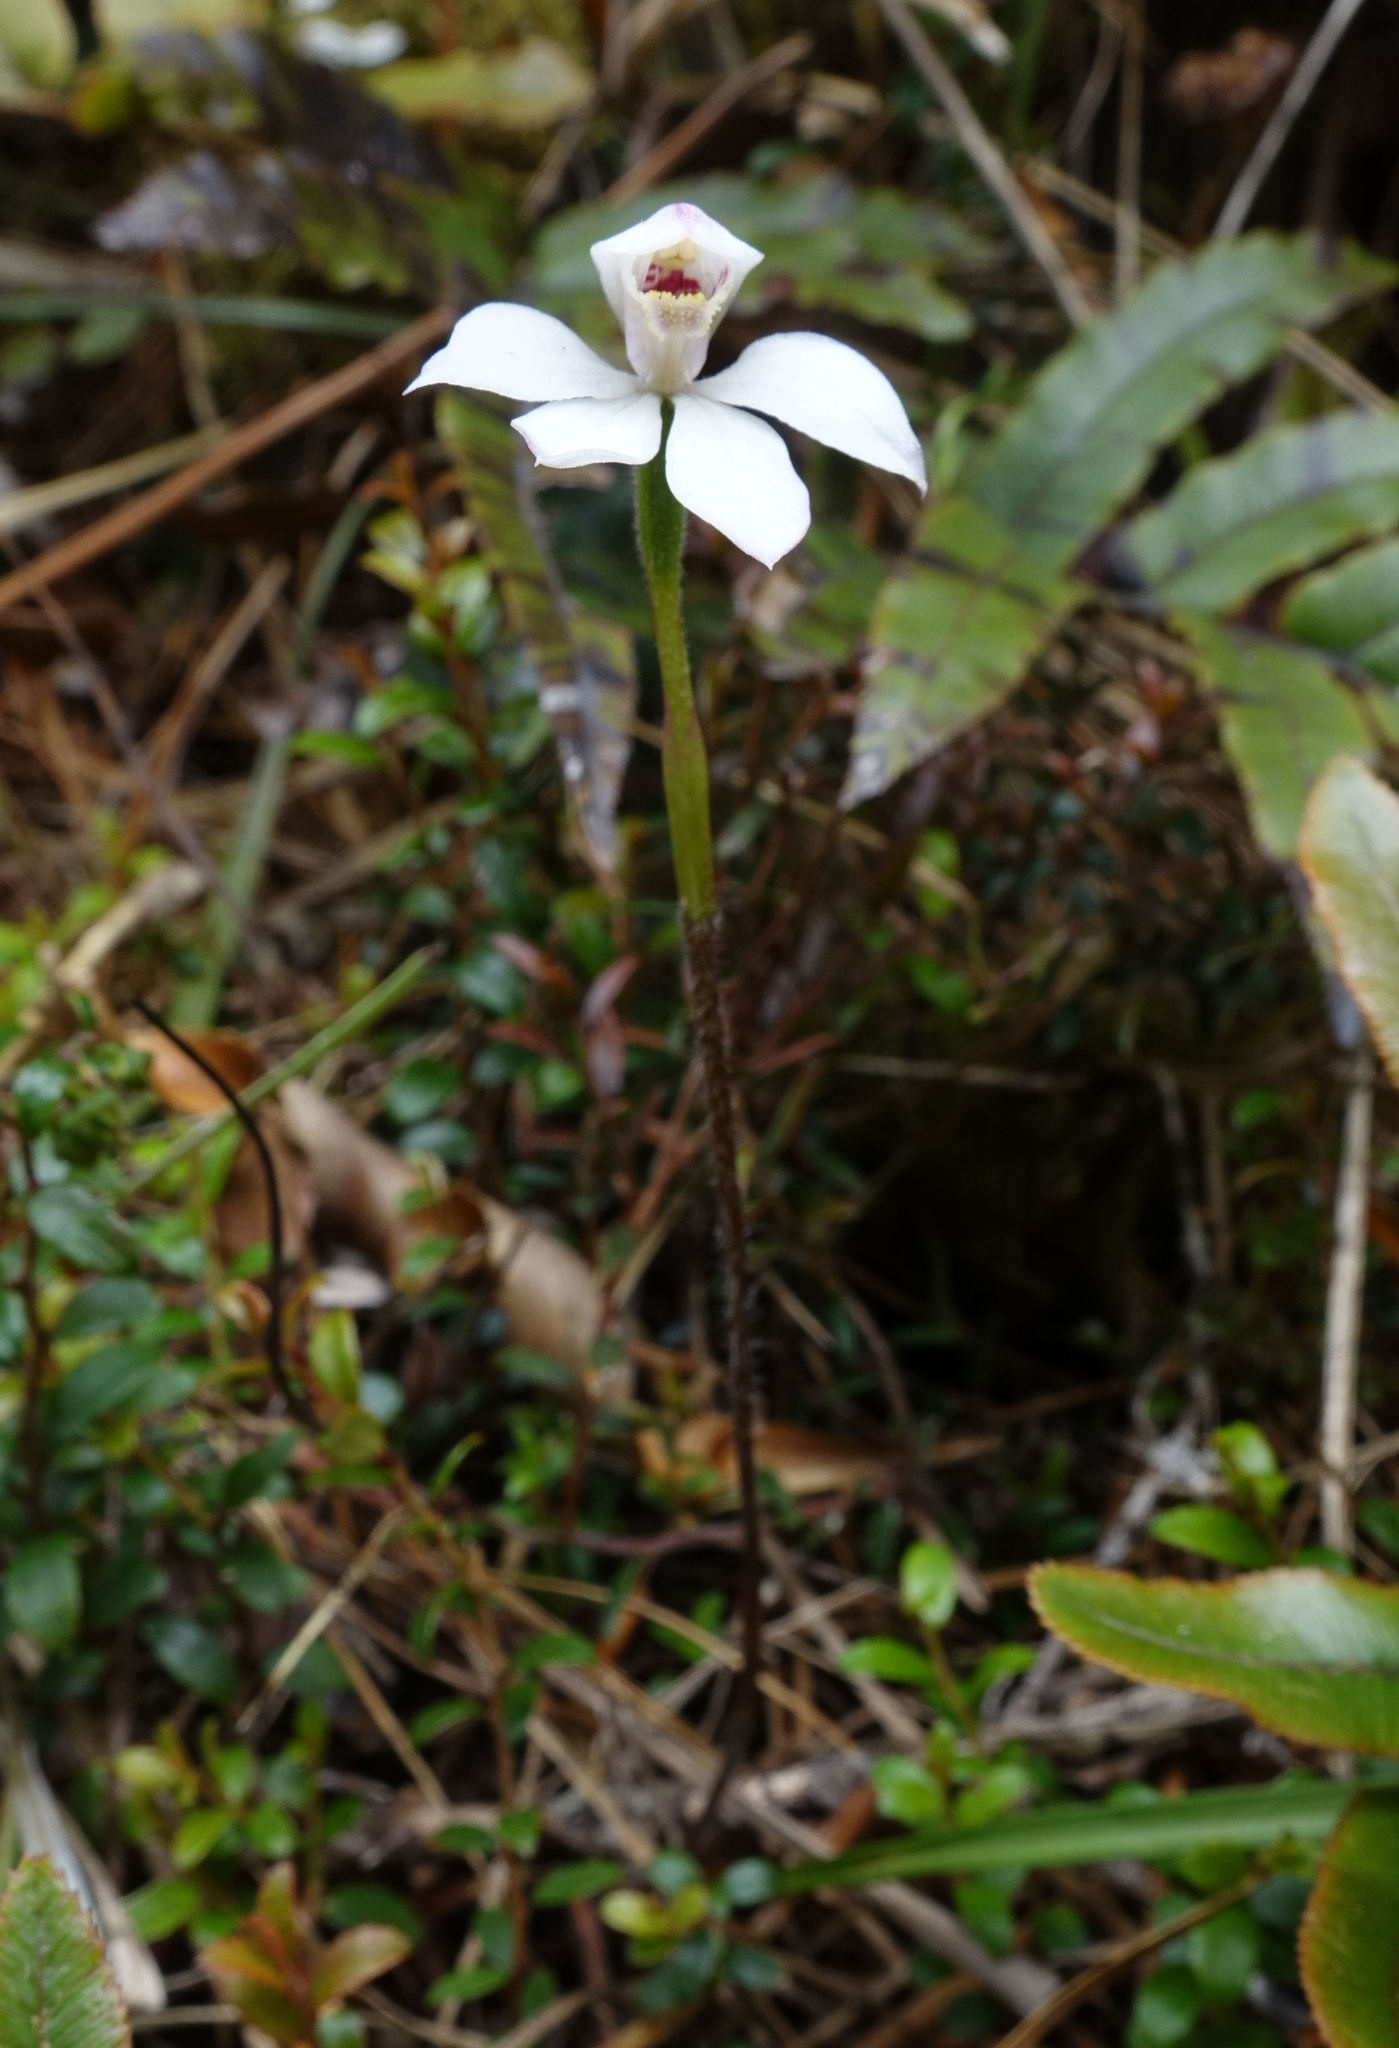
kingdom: Plantae
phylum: Tracheophyta
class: Liliopsida
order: Asparagales
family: Orchidaceae
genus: Caladenia
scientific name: Caladenia lyallii
